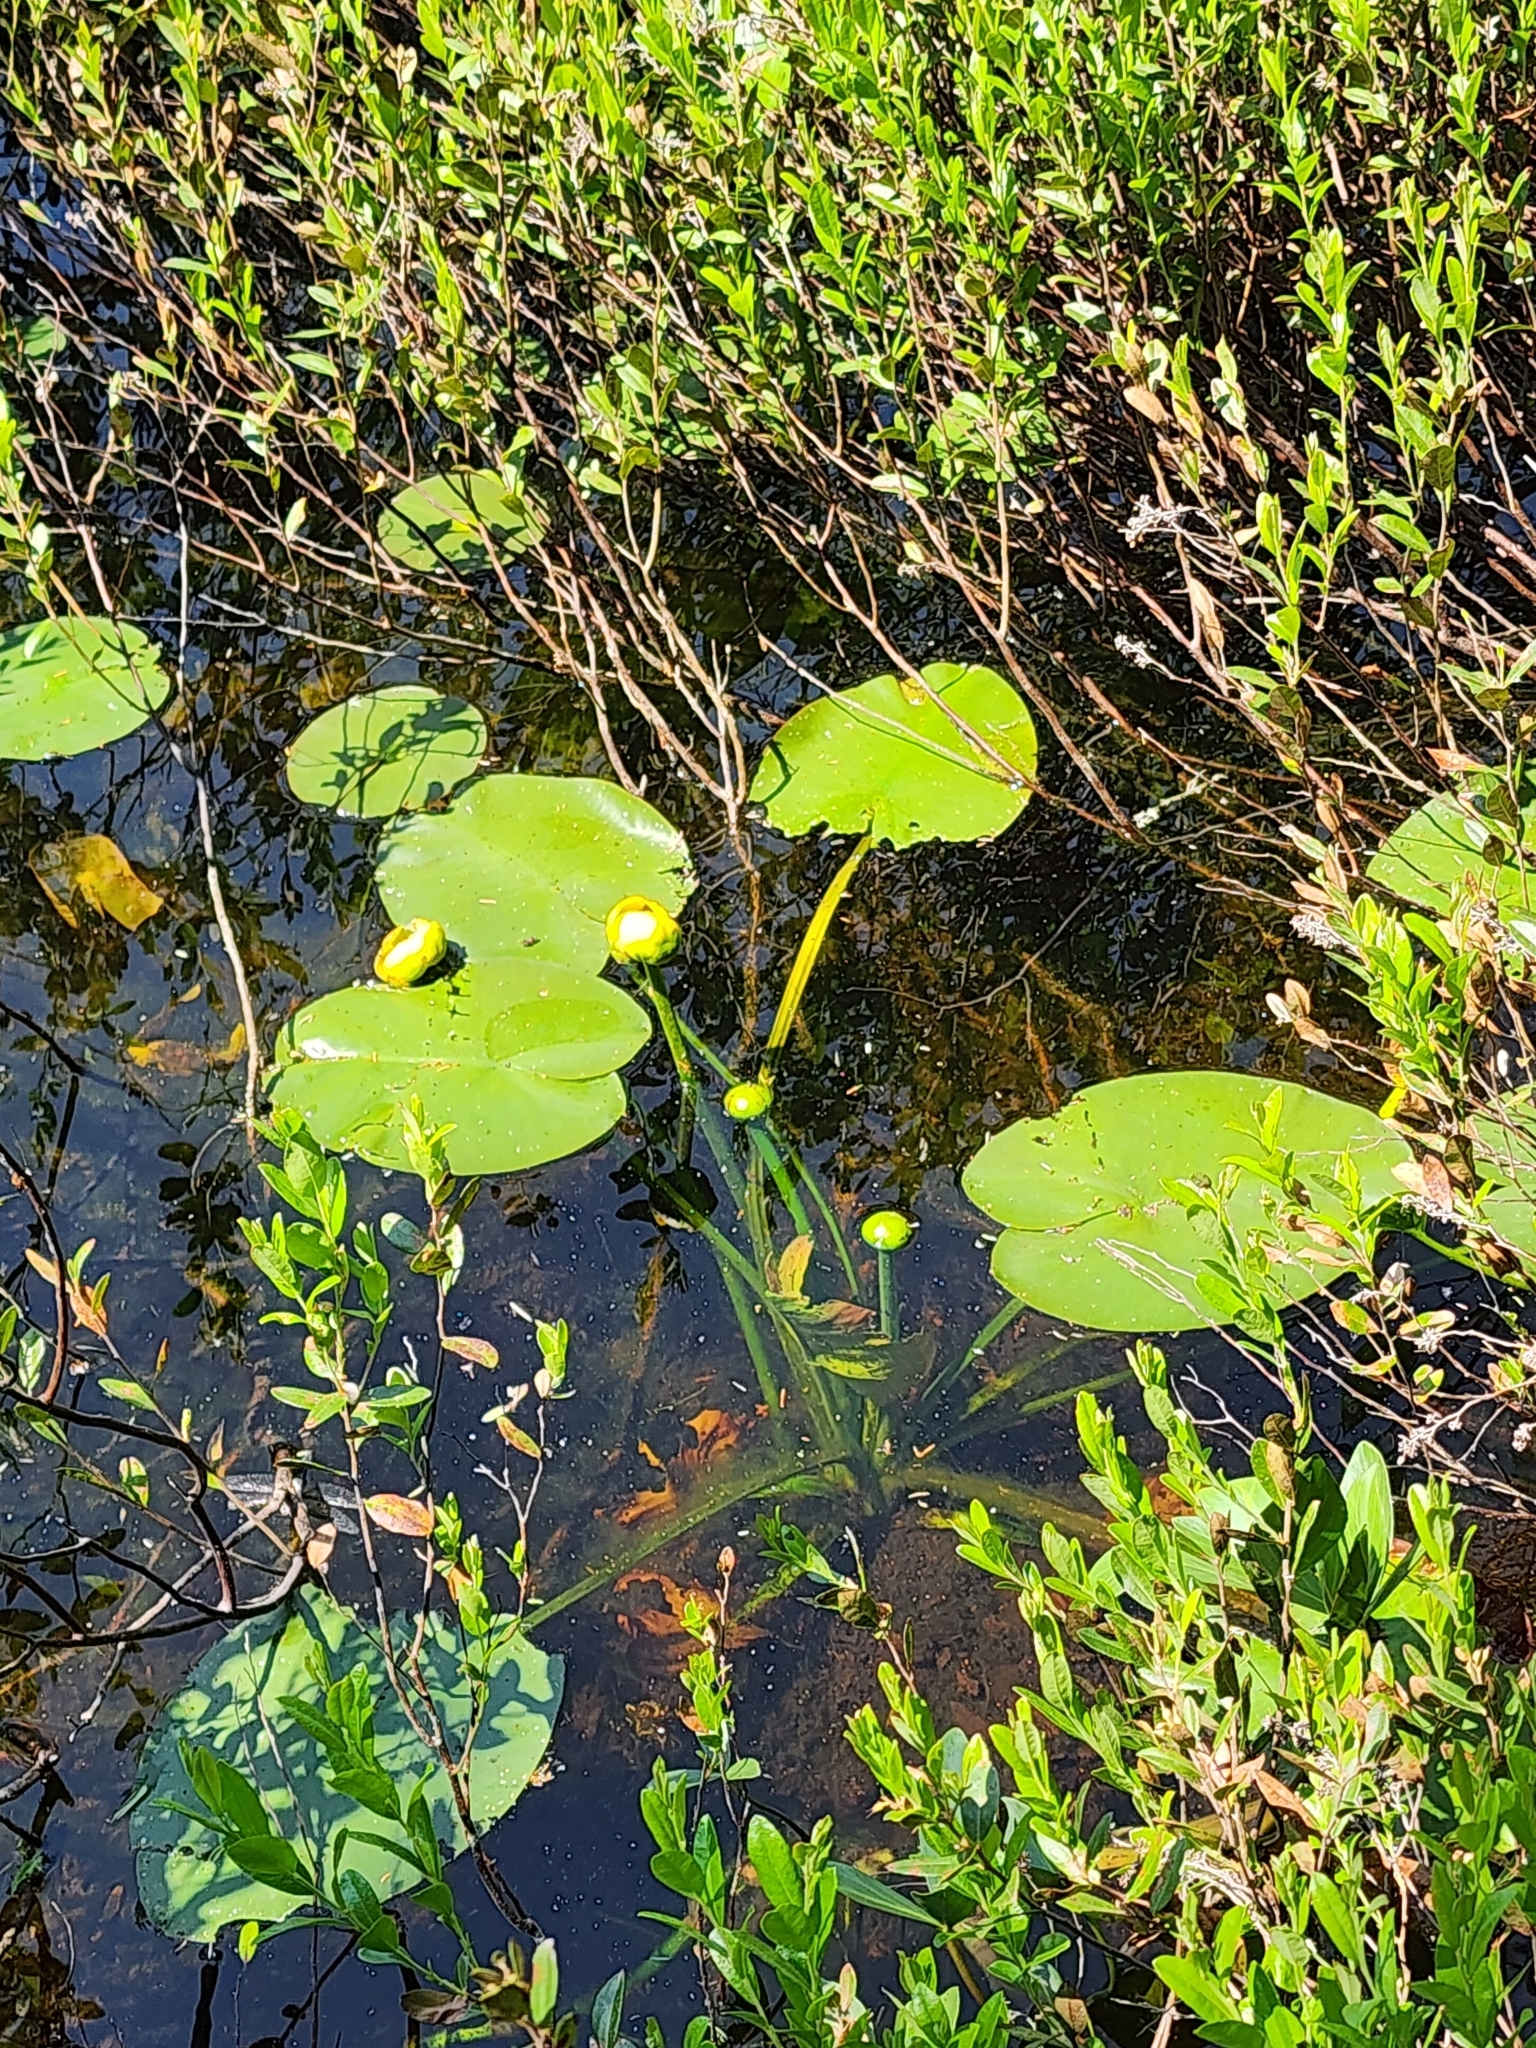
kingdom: Plantae
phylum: Tracheophyta
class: Magnoliopsida
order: Nymphaeales
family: Nymphaeaceae
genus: Nuphar
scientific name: Nuphar variegata
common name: Beaver-root
